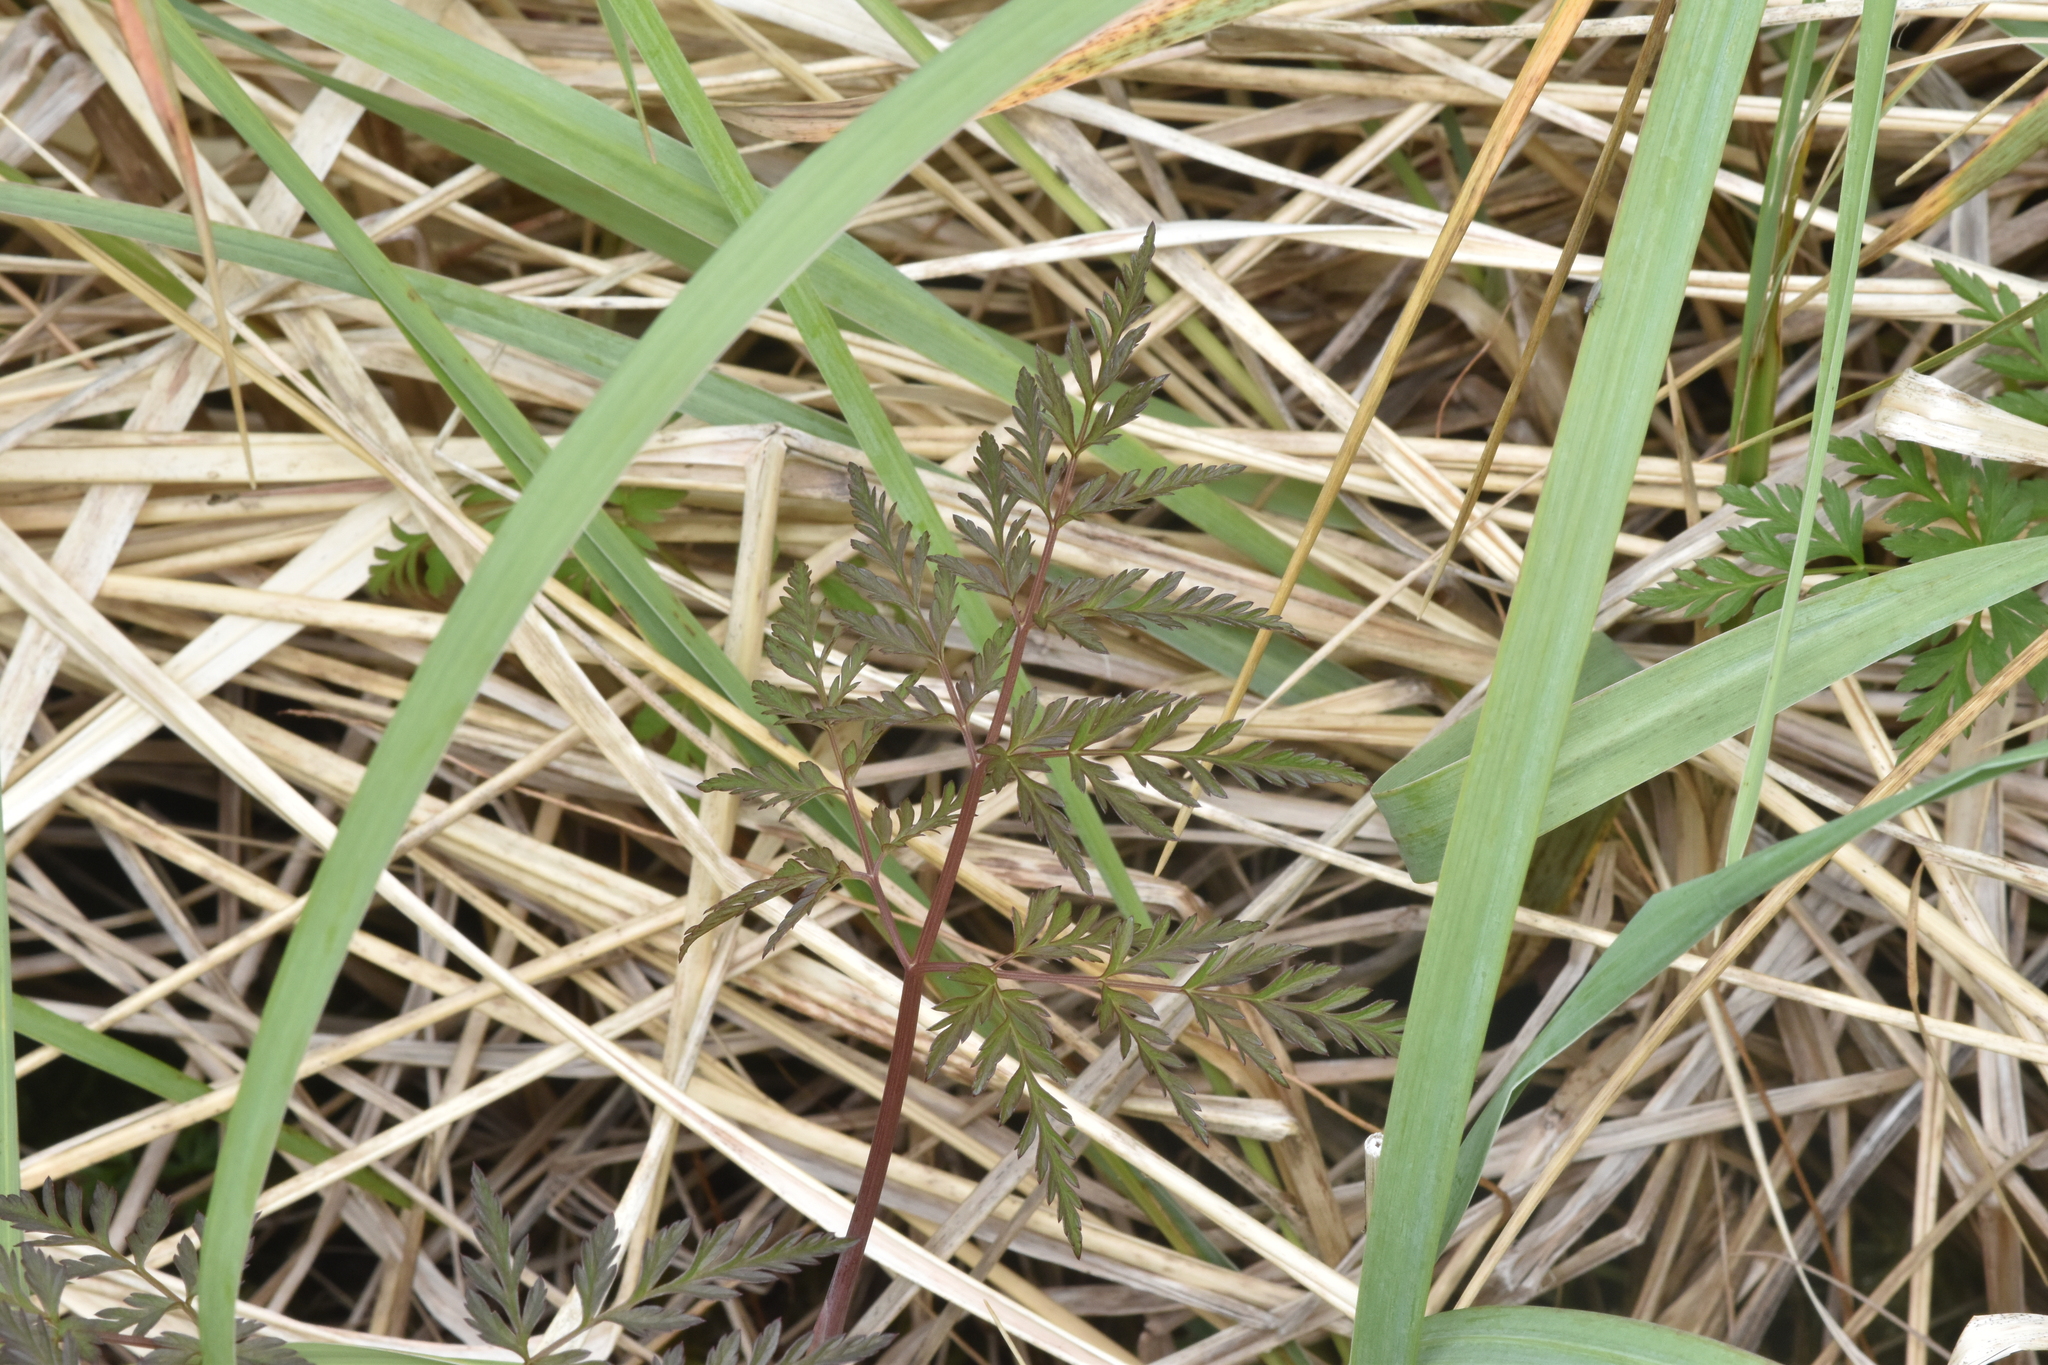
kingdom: Plantae
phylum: Tracheophyta
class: Magnoliopsida
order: Apiales
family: Apiaceae
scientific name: Apiaceae
